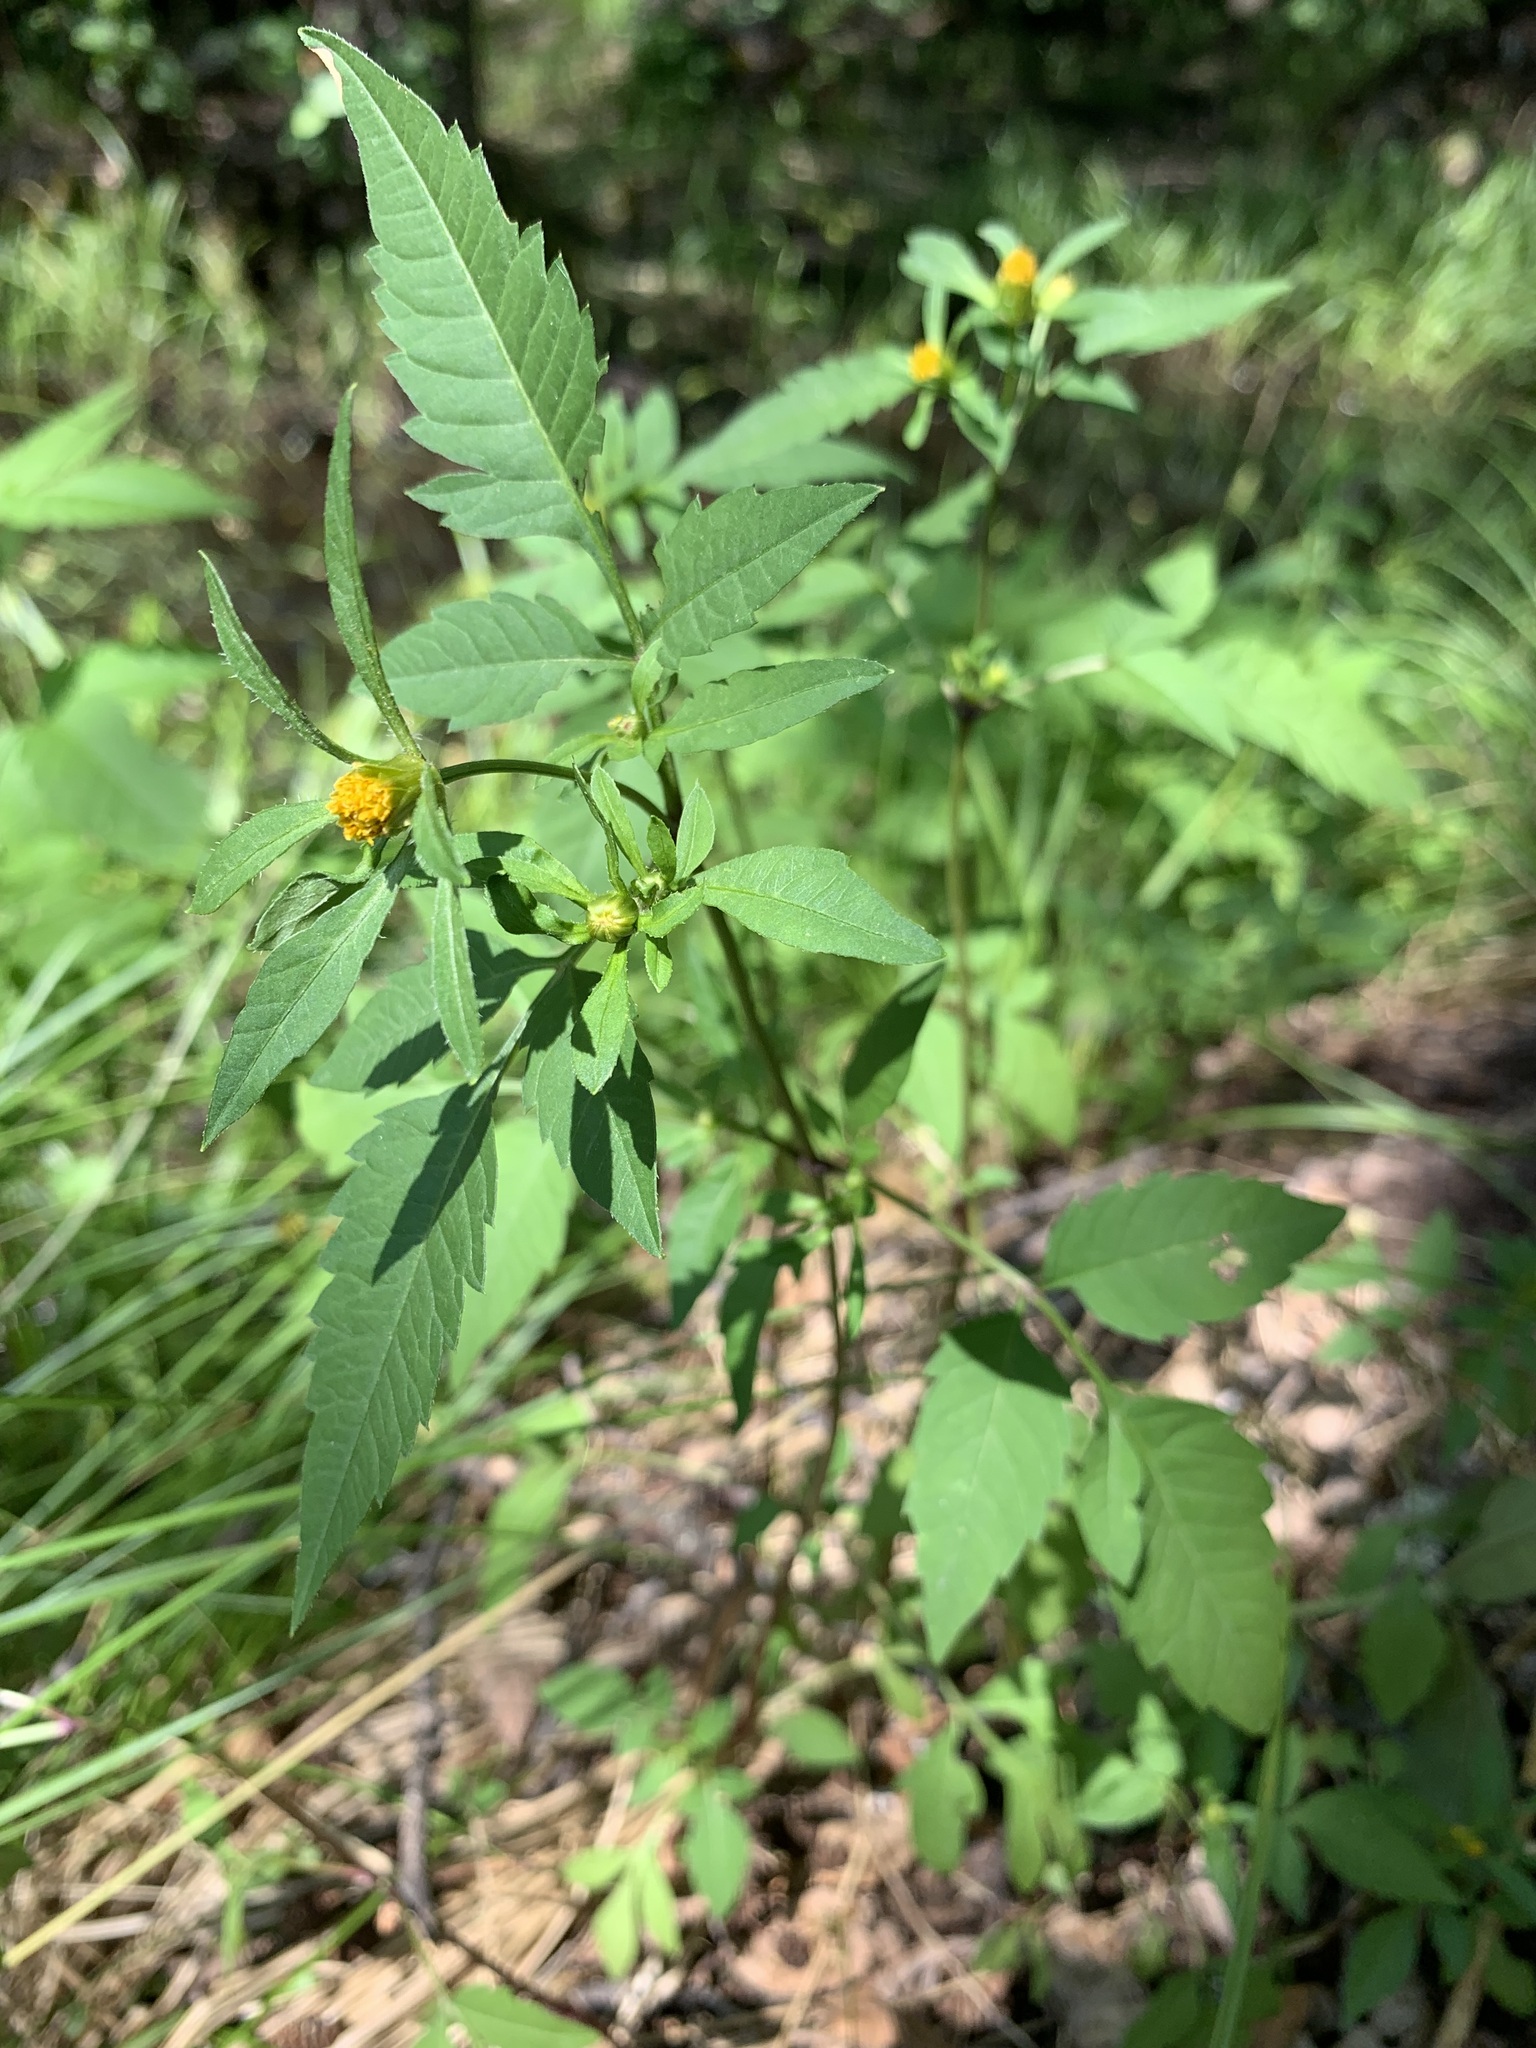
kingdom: Plantae
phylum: Tracheophyta
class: Magnoliopsida
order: Asterales
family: Asteraceae
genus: Bidens
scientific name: Bidens frondosa
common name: Beggarticks
